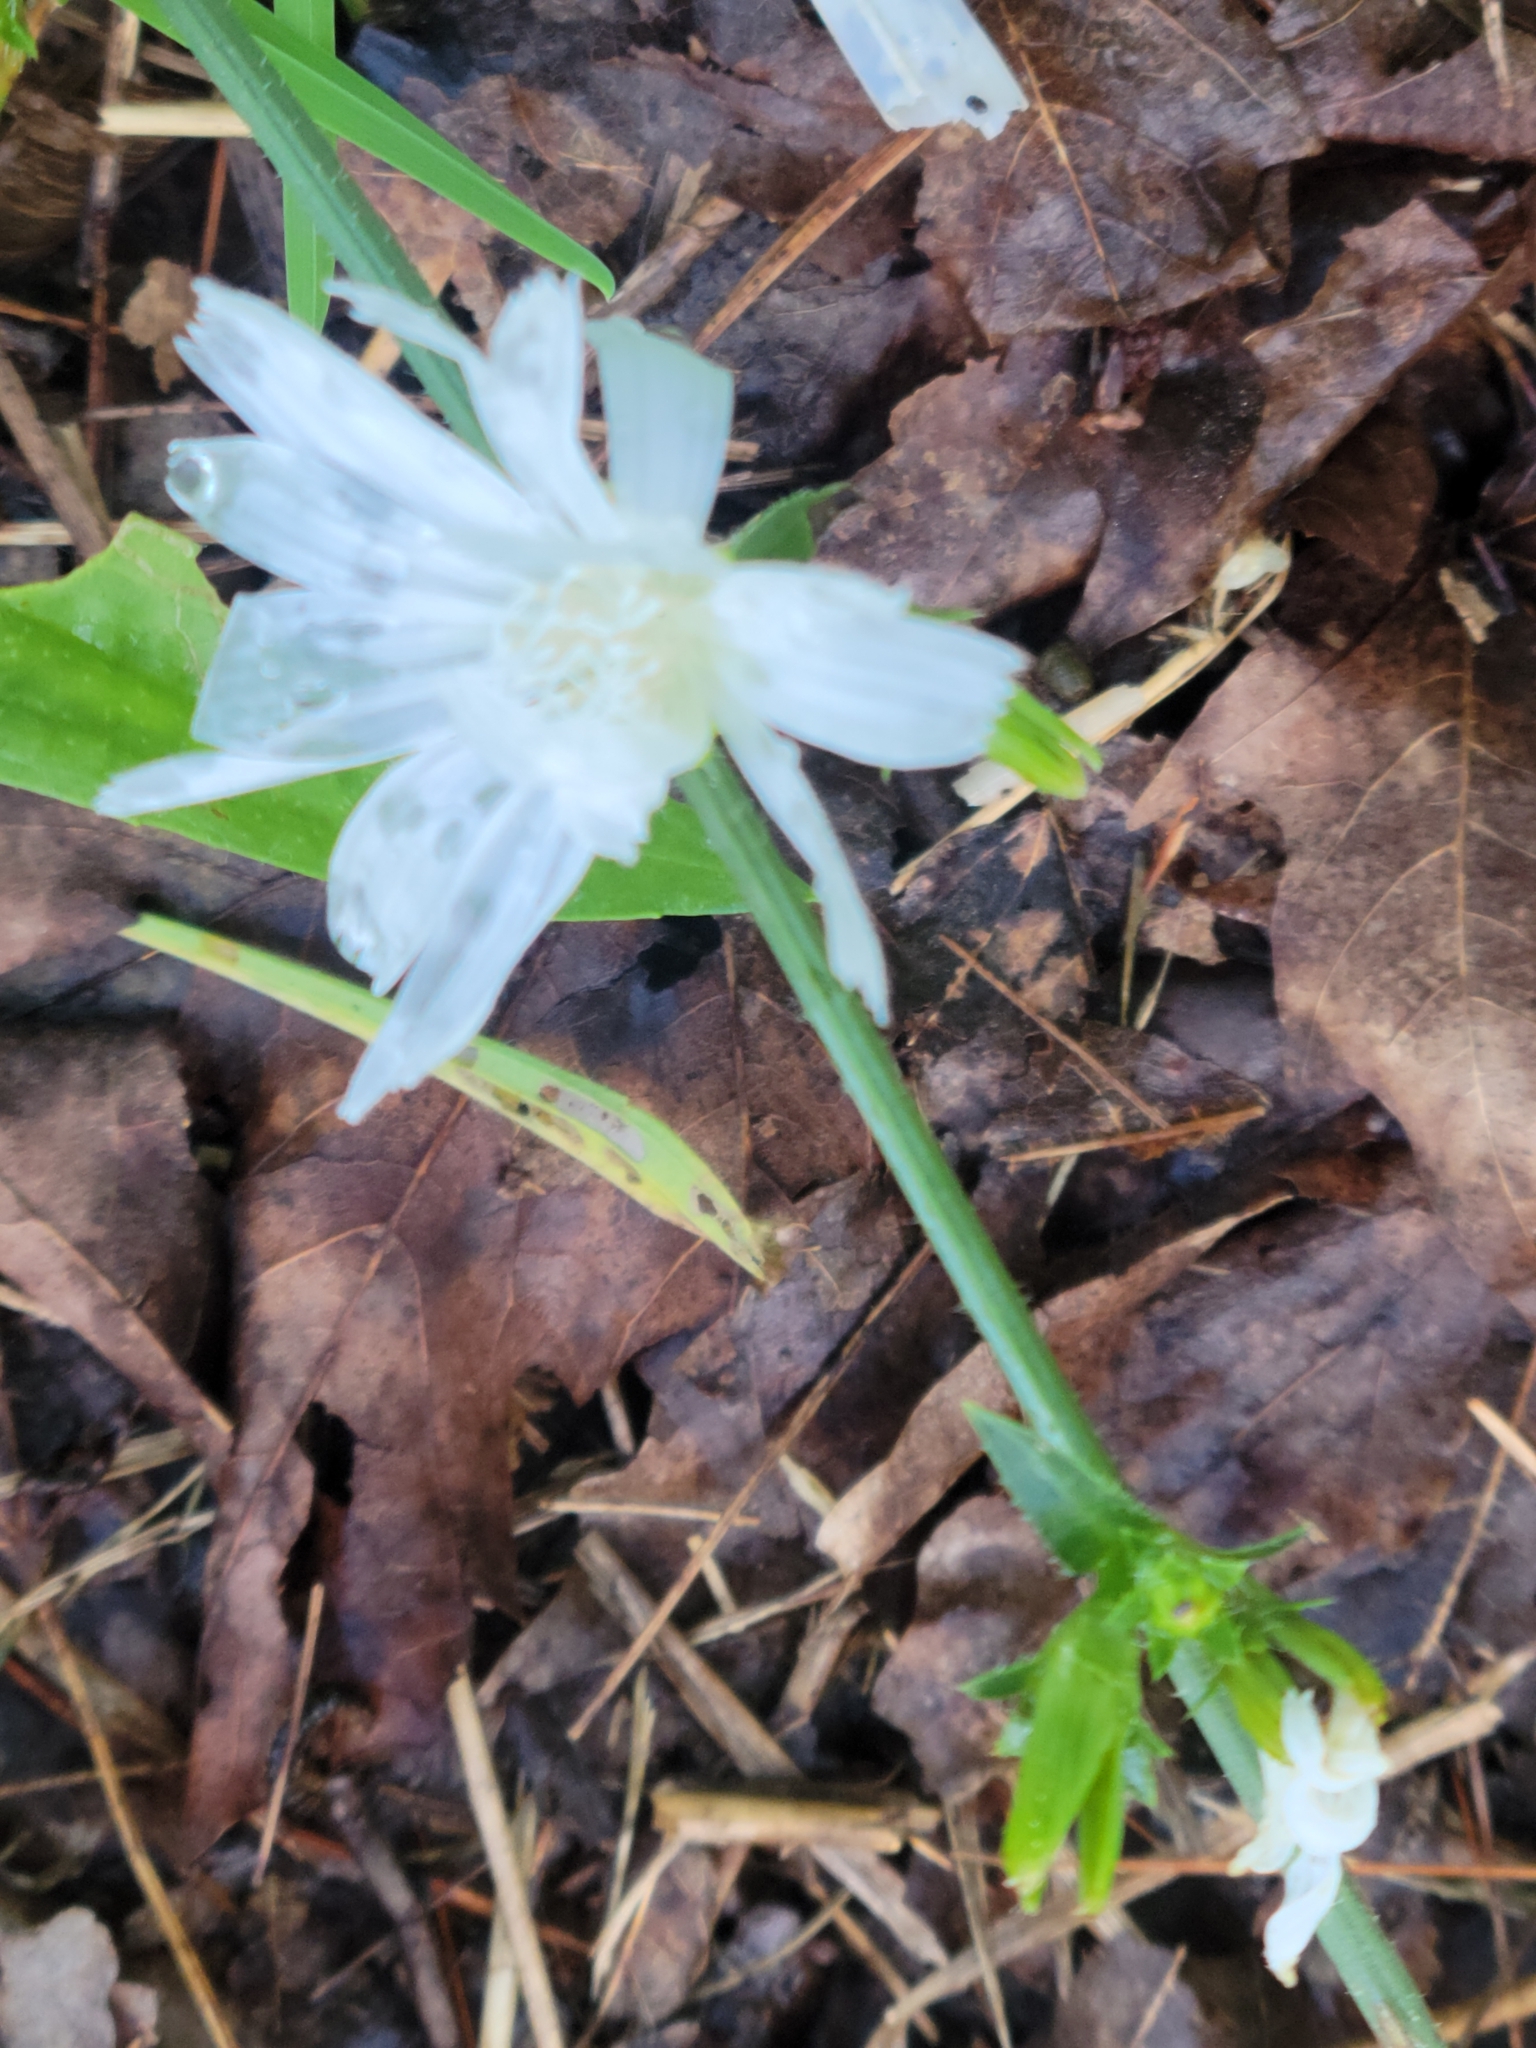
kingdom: Plantae
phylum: Tracheophyta
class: Magnoliopsida
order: Asterales
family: Asteraceae
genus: Cichorium
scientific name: Cichorium intybus
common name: Chicory
